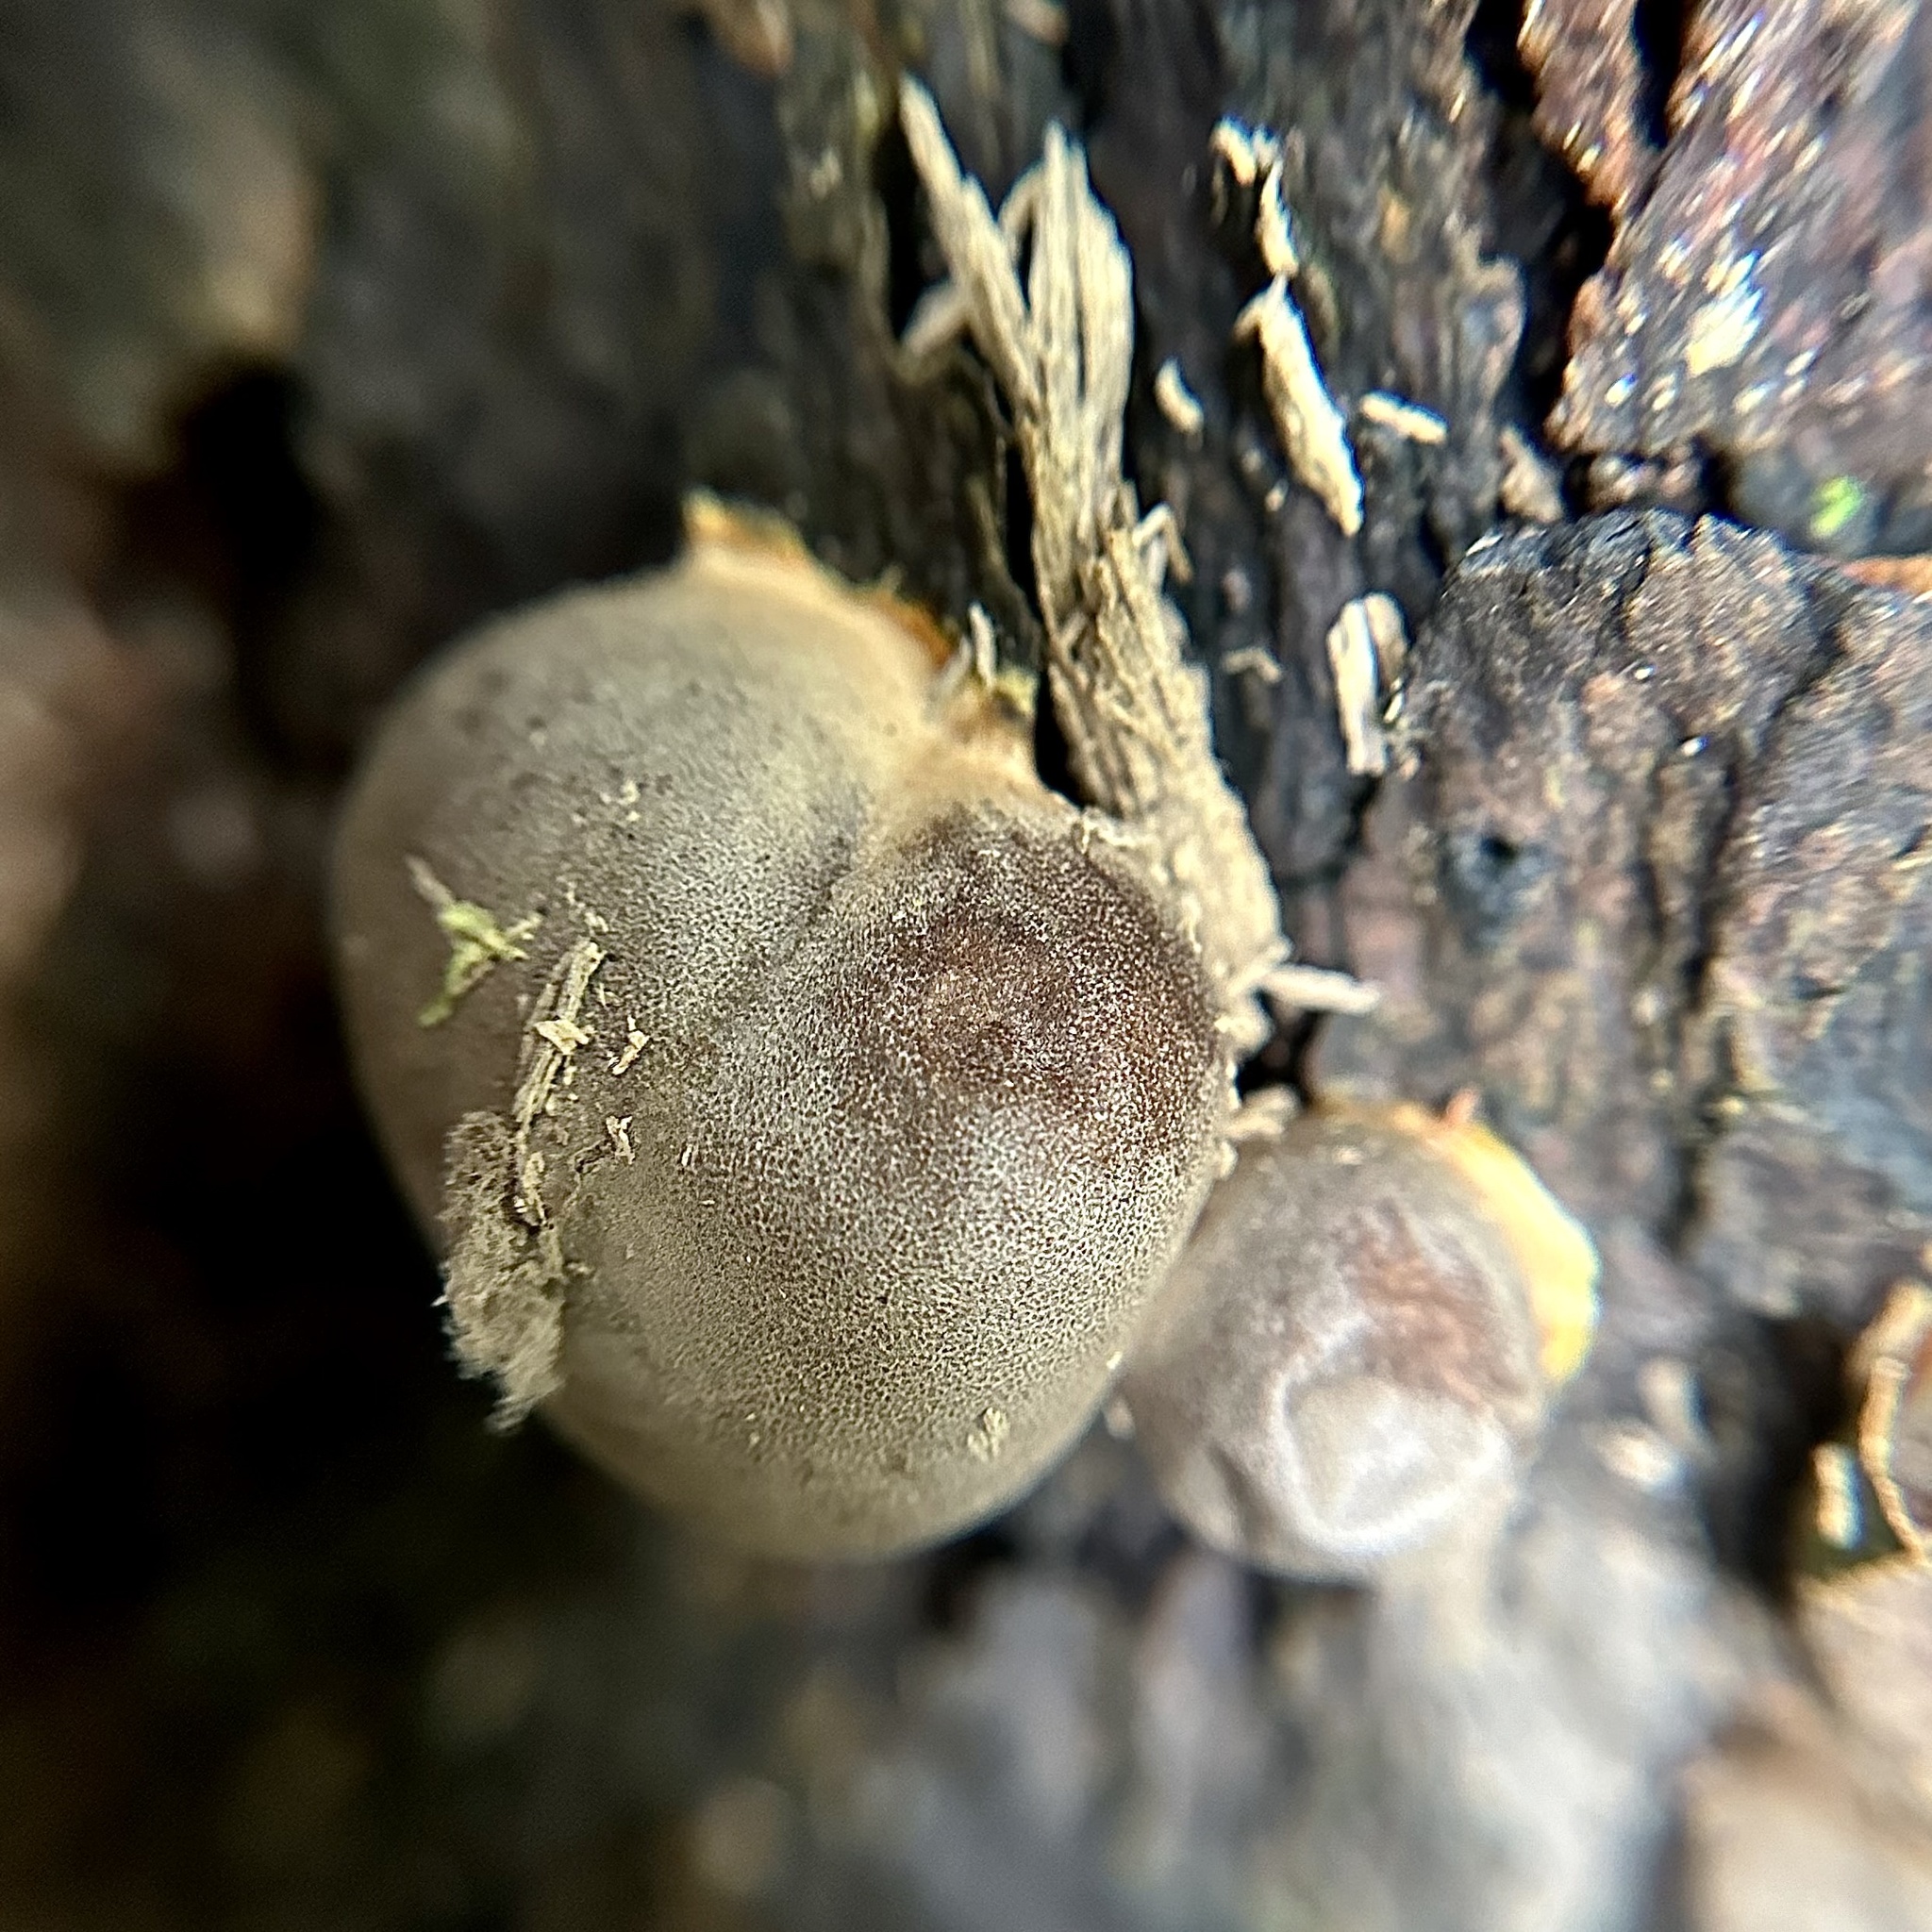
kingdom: Protozoa
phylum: Mycetozoa
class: Myxomycetes
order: Cribrariales
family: Tubiferaceae
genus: Lycogala
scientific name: Lycogala flavofuscum
